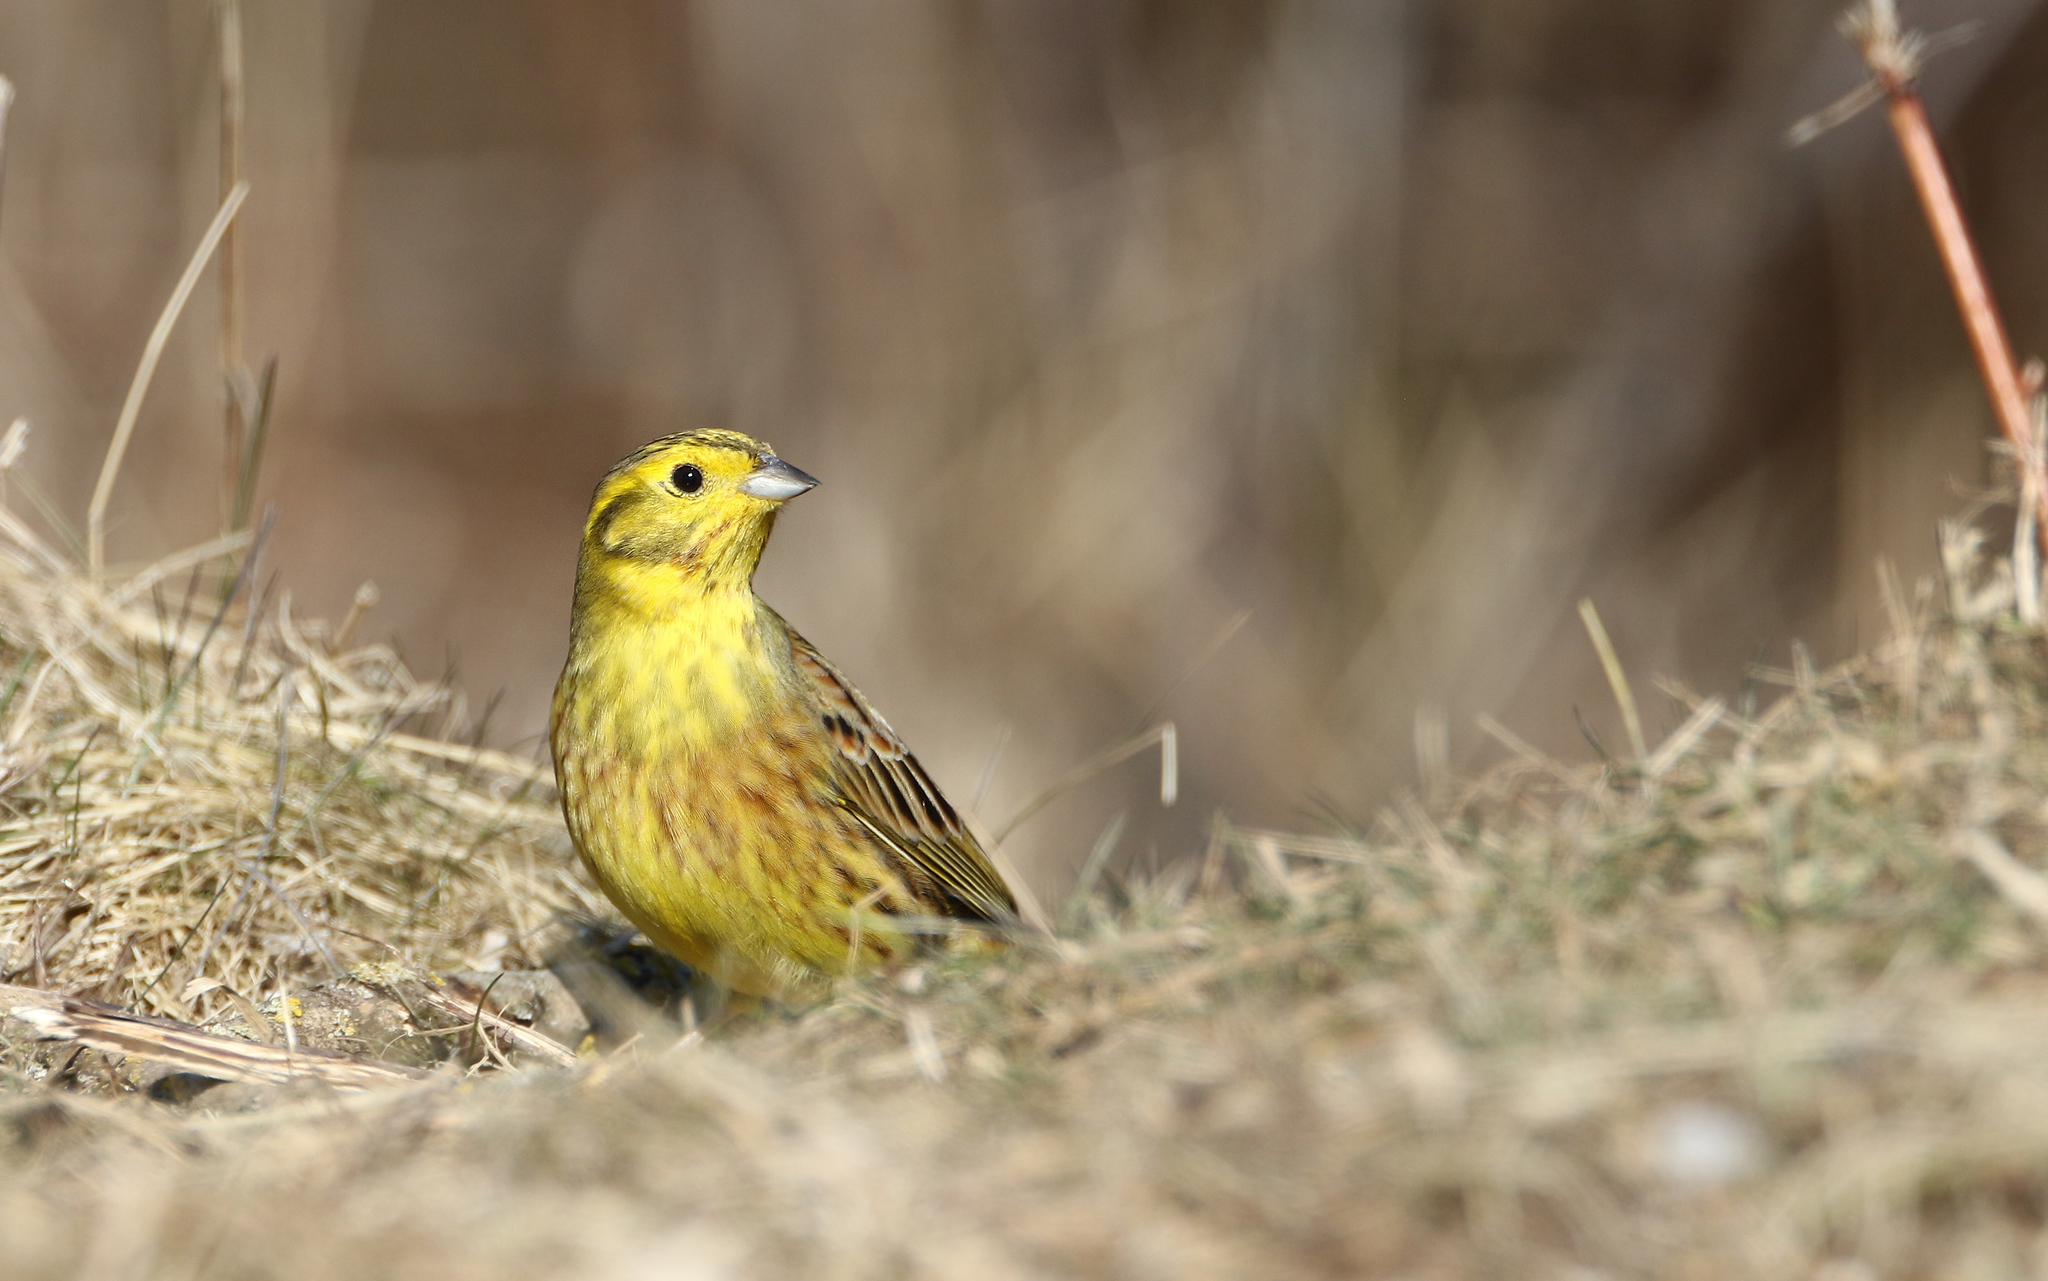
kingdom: Animalia
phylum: Chordata
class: Aves
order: Passeriformes
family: Emberizidae
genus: Emberiza
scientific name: Emberiza citrinella
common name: Yellowhammer
